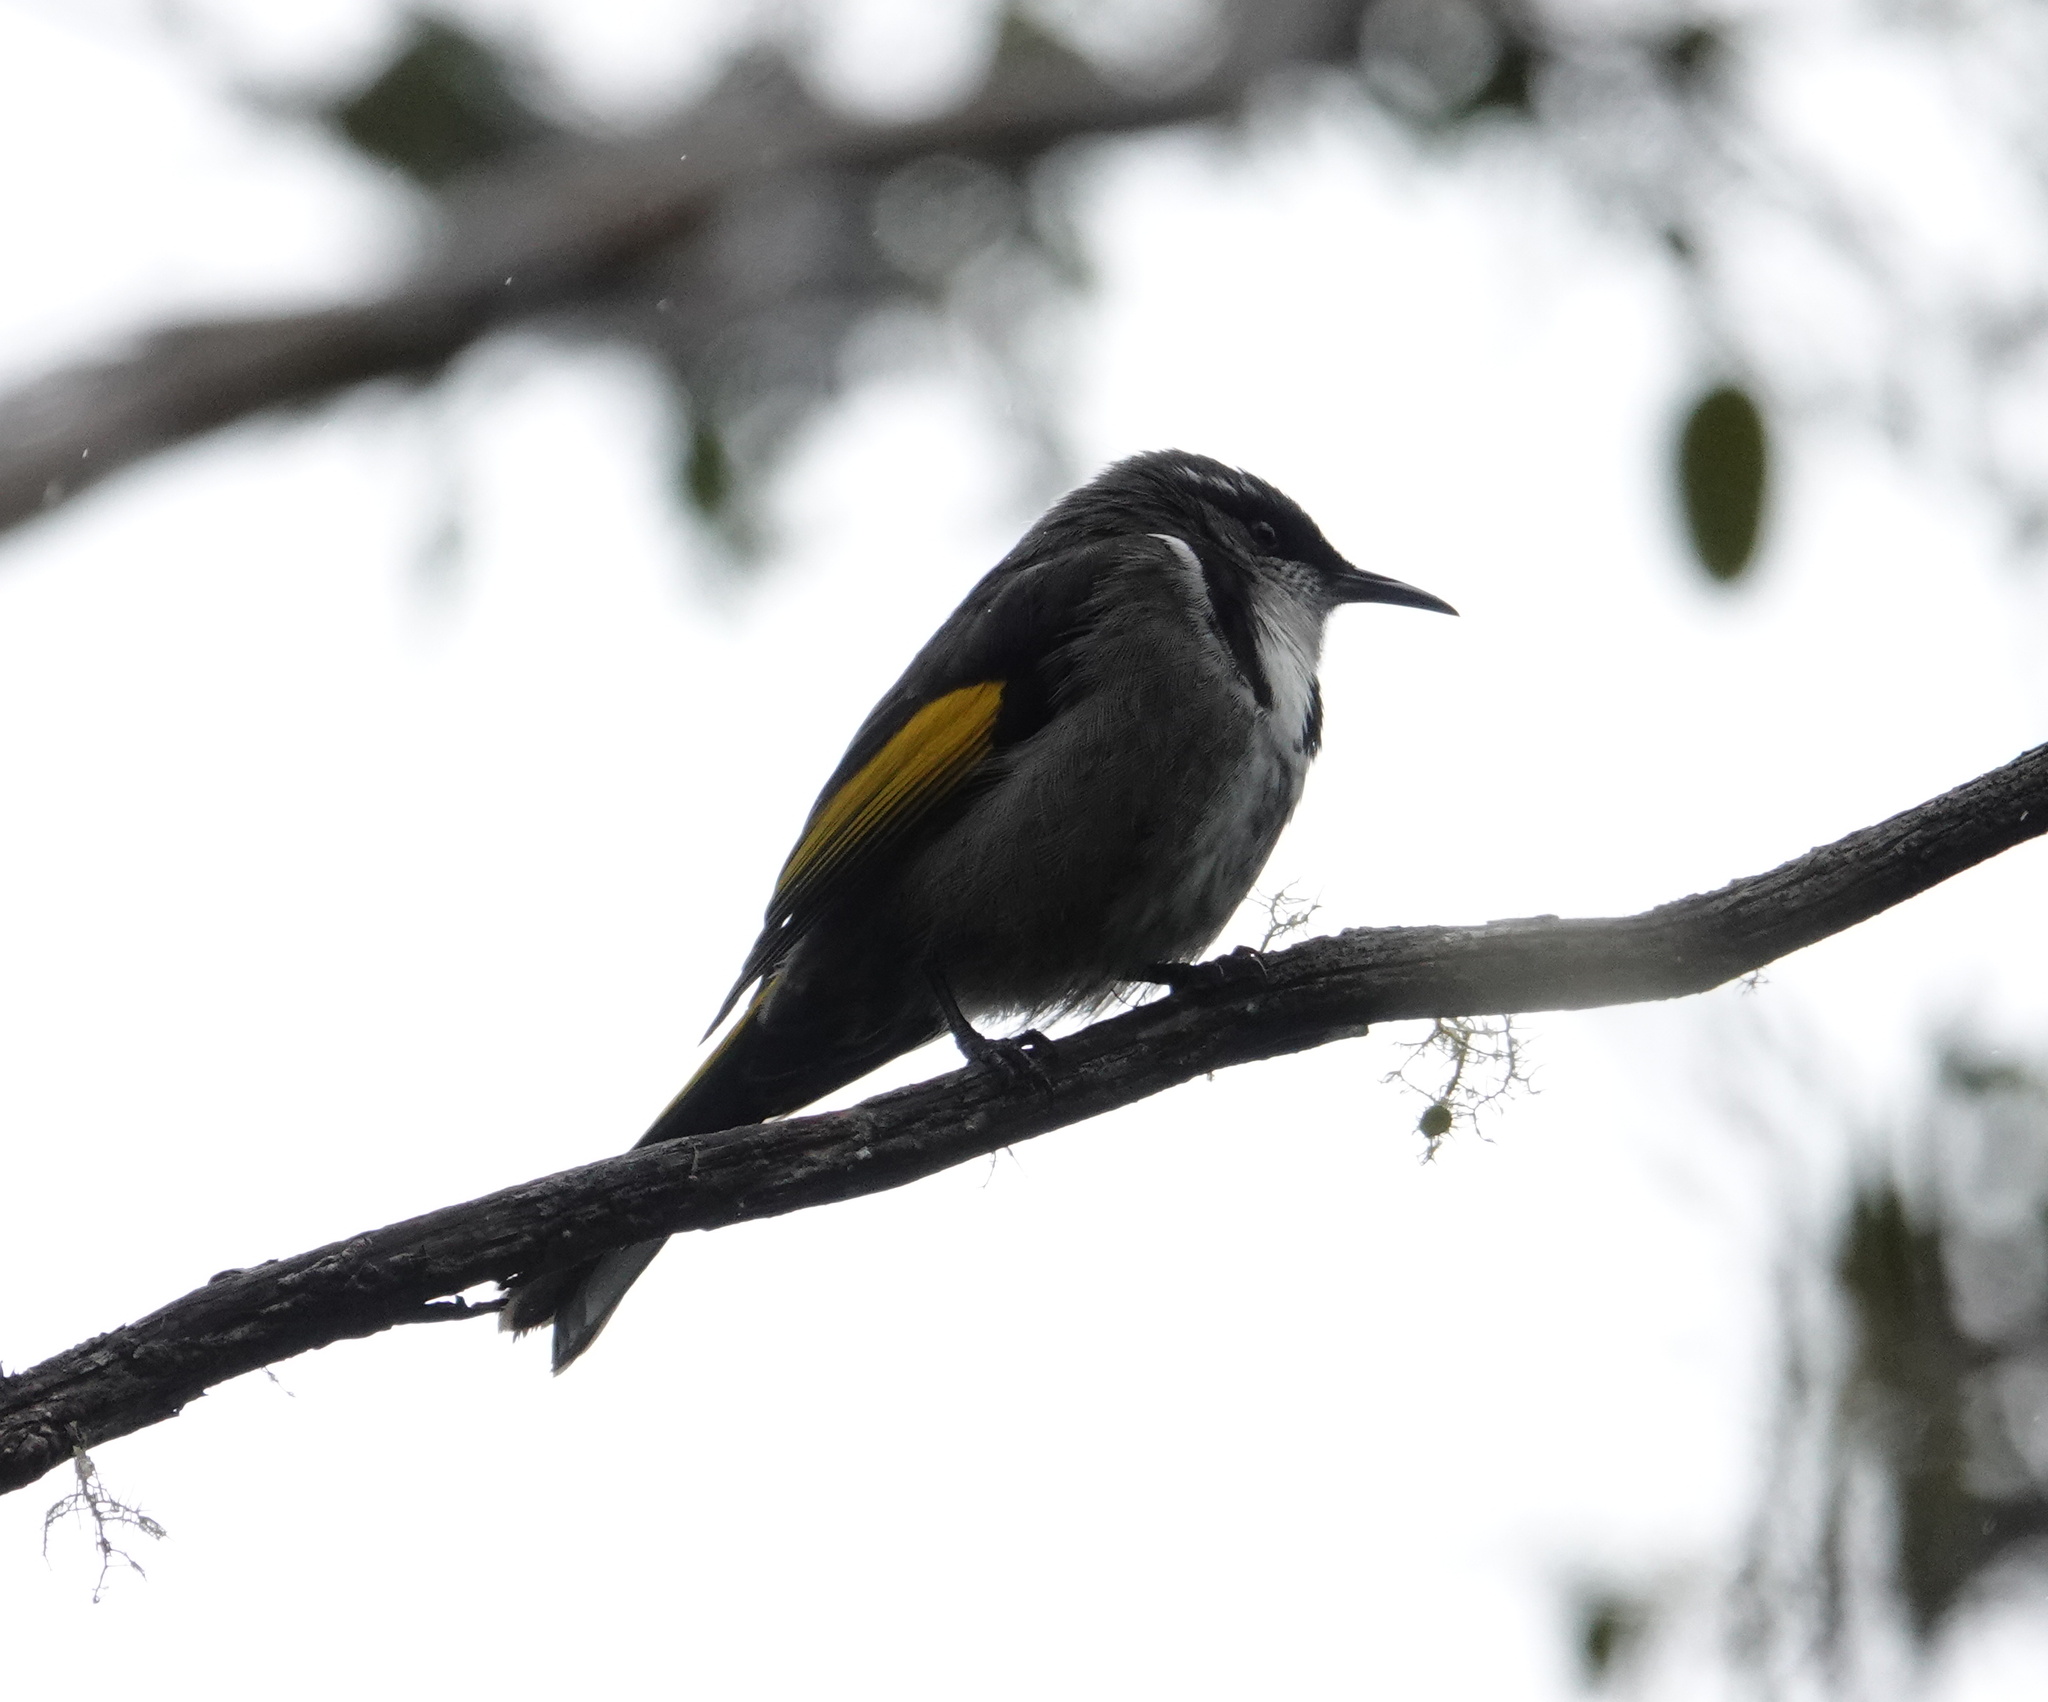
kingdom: Animalia
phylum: Chordata
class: Aves
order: Passeriformes
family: Meliphagidae
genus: Phylidonyris
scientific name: Phylidonyris pyrrhopterus
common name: Crescent honeyeater
